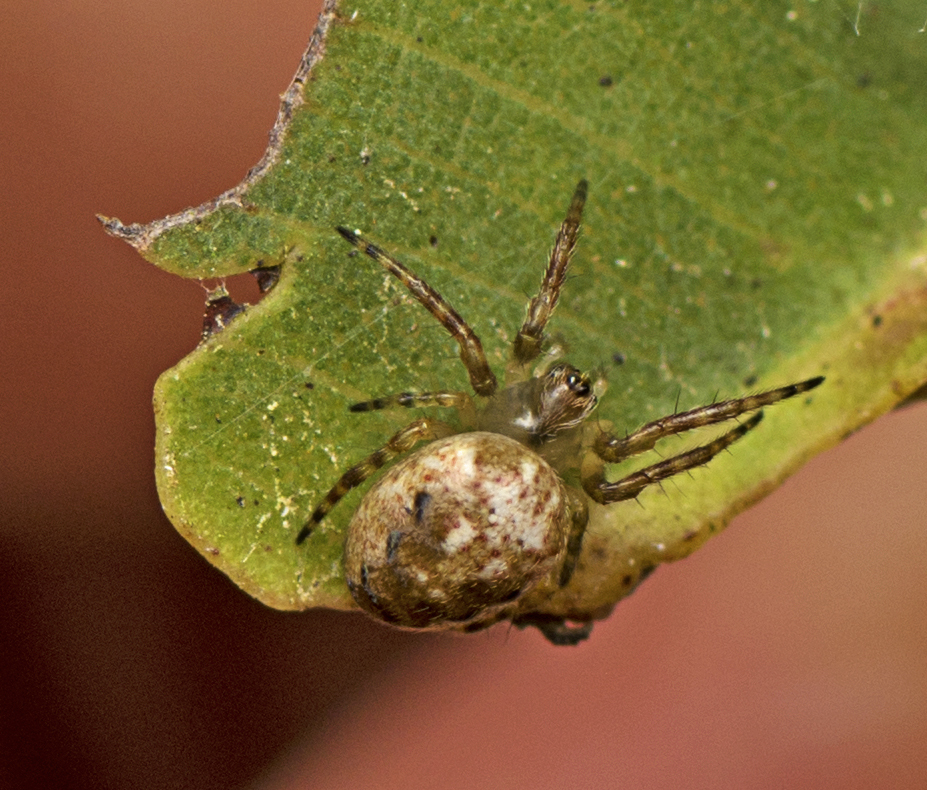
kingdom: Animalia
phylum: Arthropoda
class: Arachnida
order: Araneae
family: Araneidae
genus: Plebs
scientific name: Plebs eburnus
